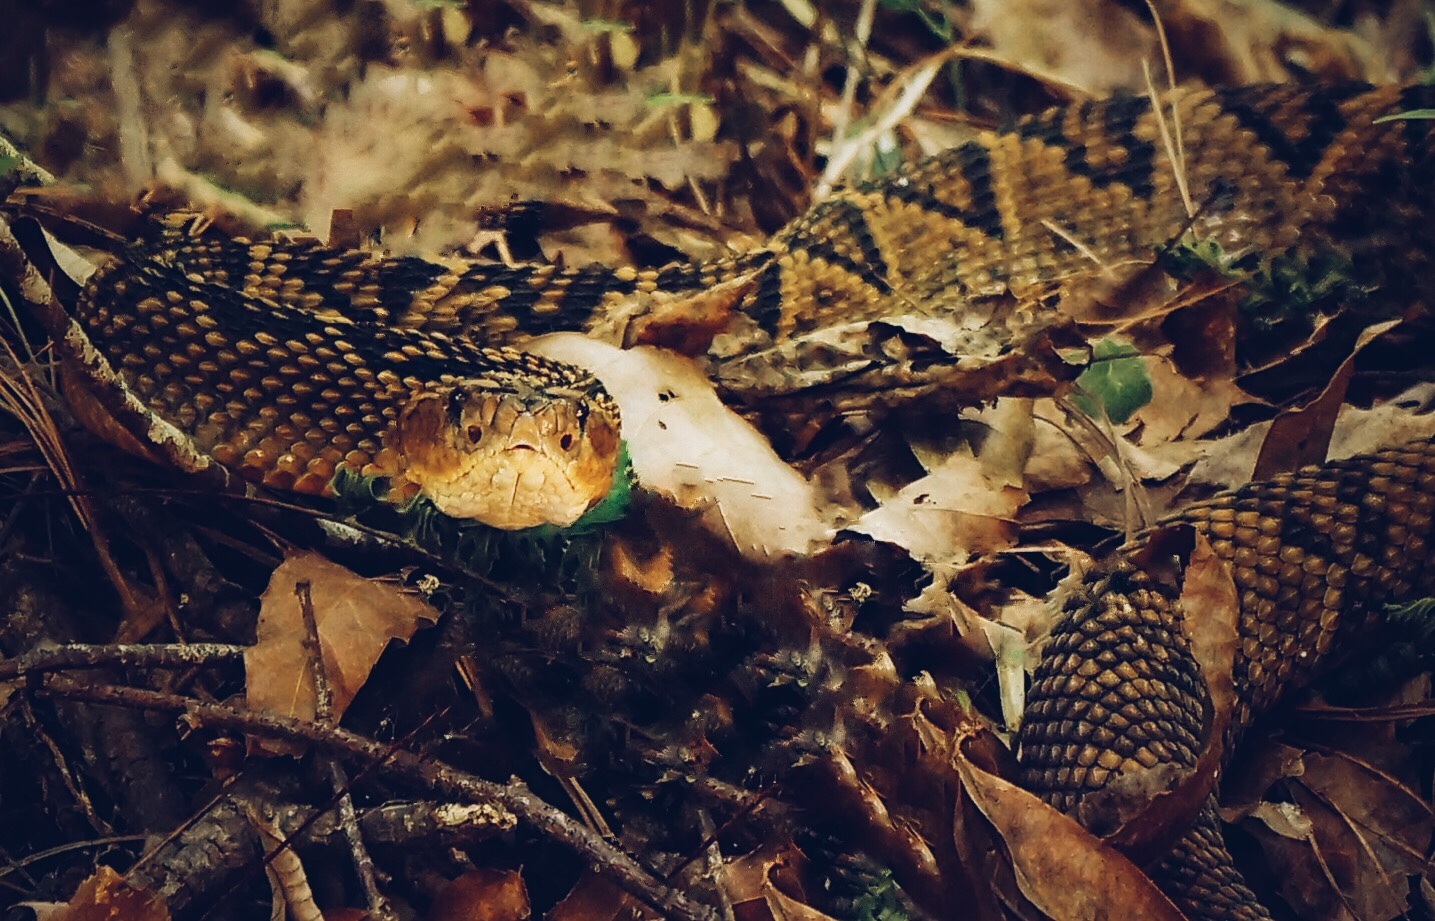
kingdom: Animalia
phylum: Chordata
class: Squamata
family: Viperidae
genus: Crotalus
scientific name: Crotalus totonacus
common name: Totonacan rattlesnake
